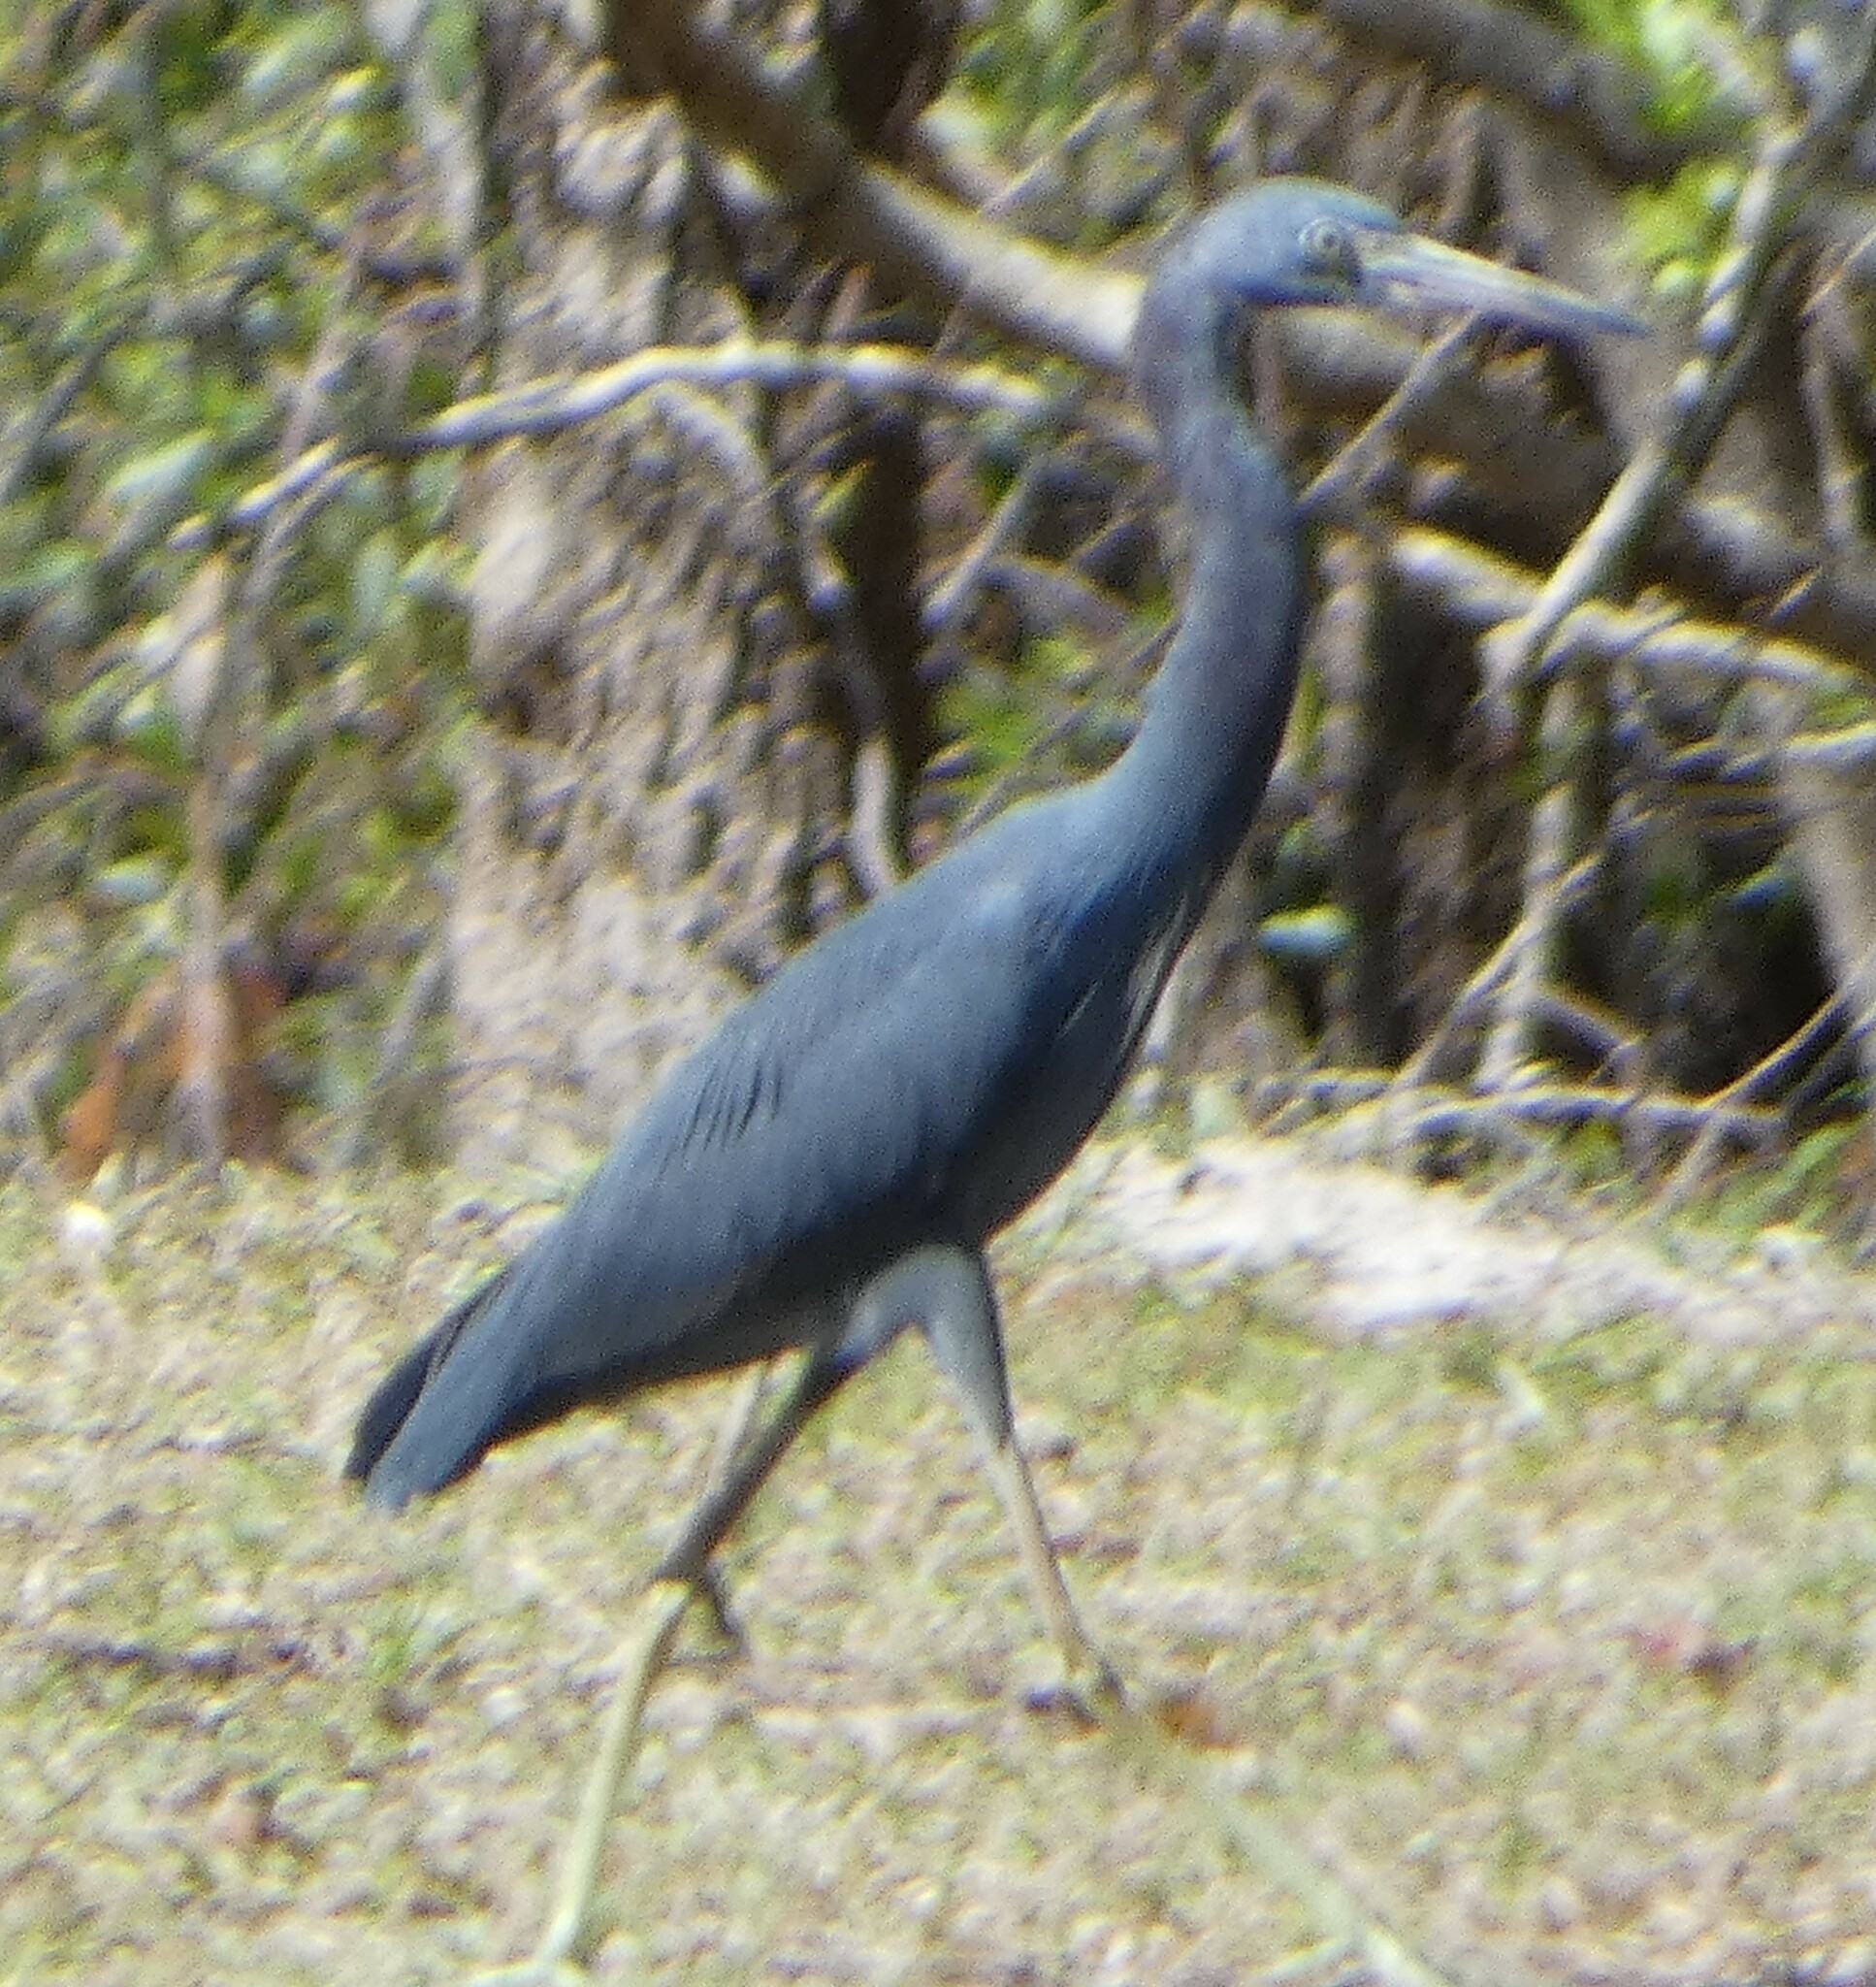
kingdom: Animalia
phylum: Chordata
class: Aves
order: Pelecaniformes
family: Ardeidae
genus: Egretta
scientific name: Egretta caerulea
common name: Little blue heron
